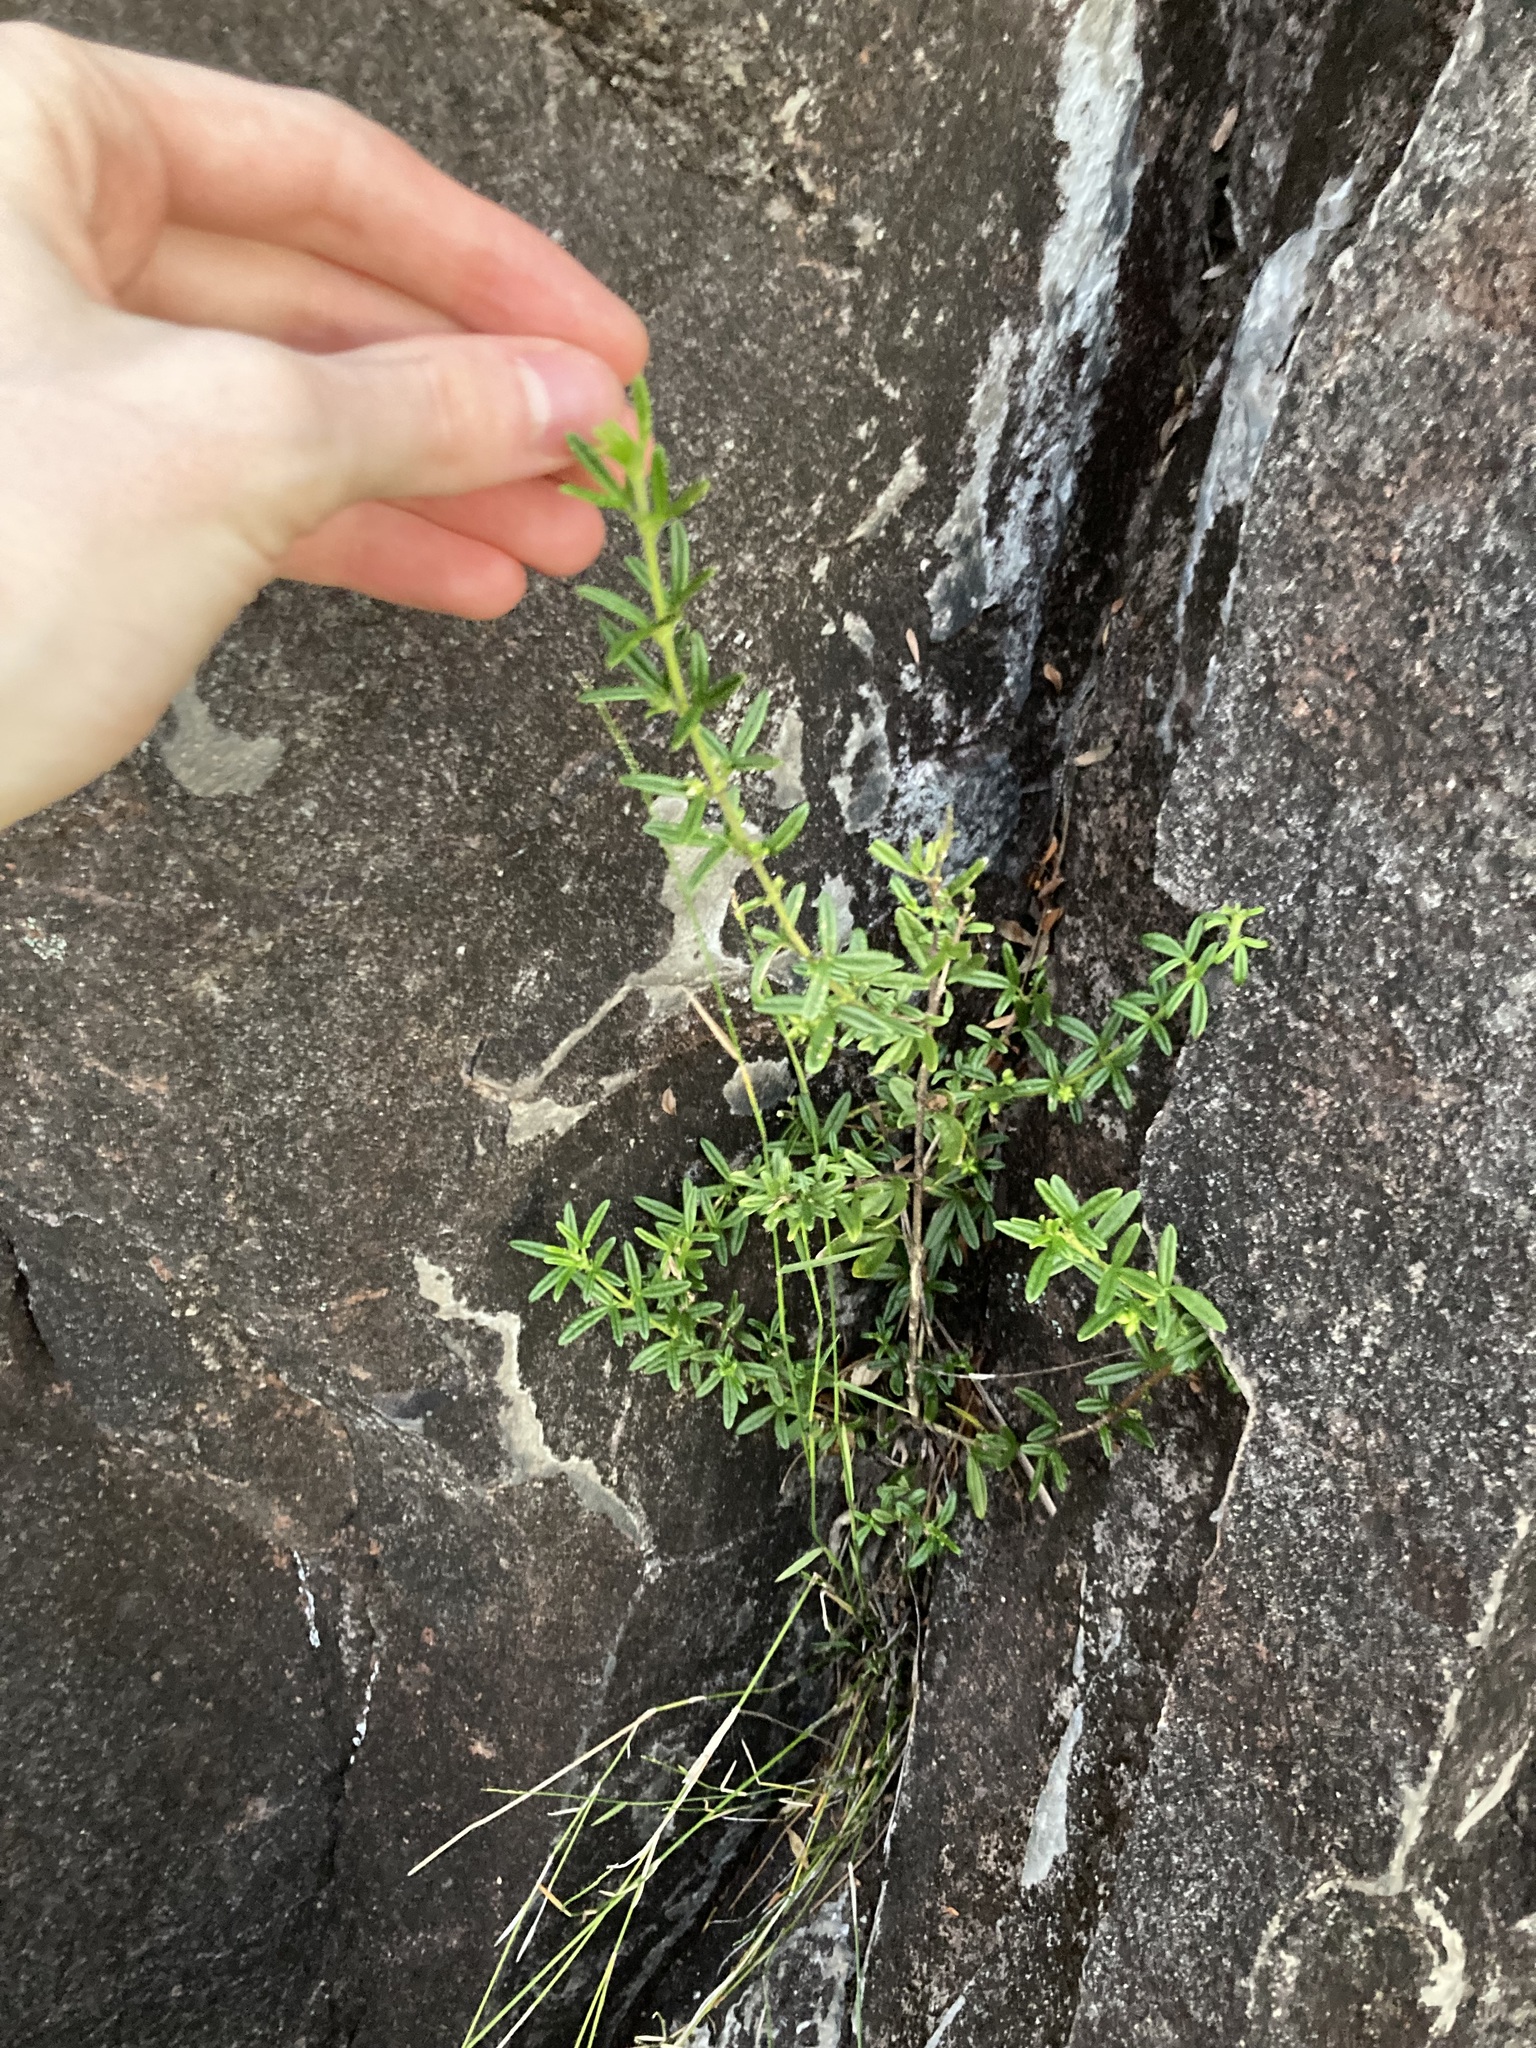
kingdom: Plantae
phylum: Tracheophyta
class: Magnoliopsida
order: Sapindales
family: Rutaceae
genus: Zieria
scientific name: Zieria pilosa
